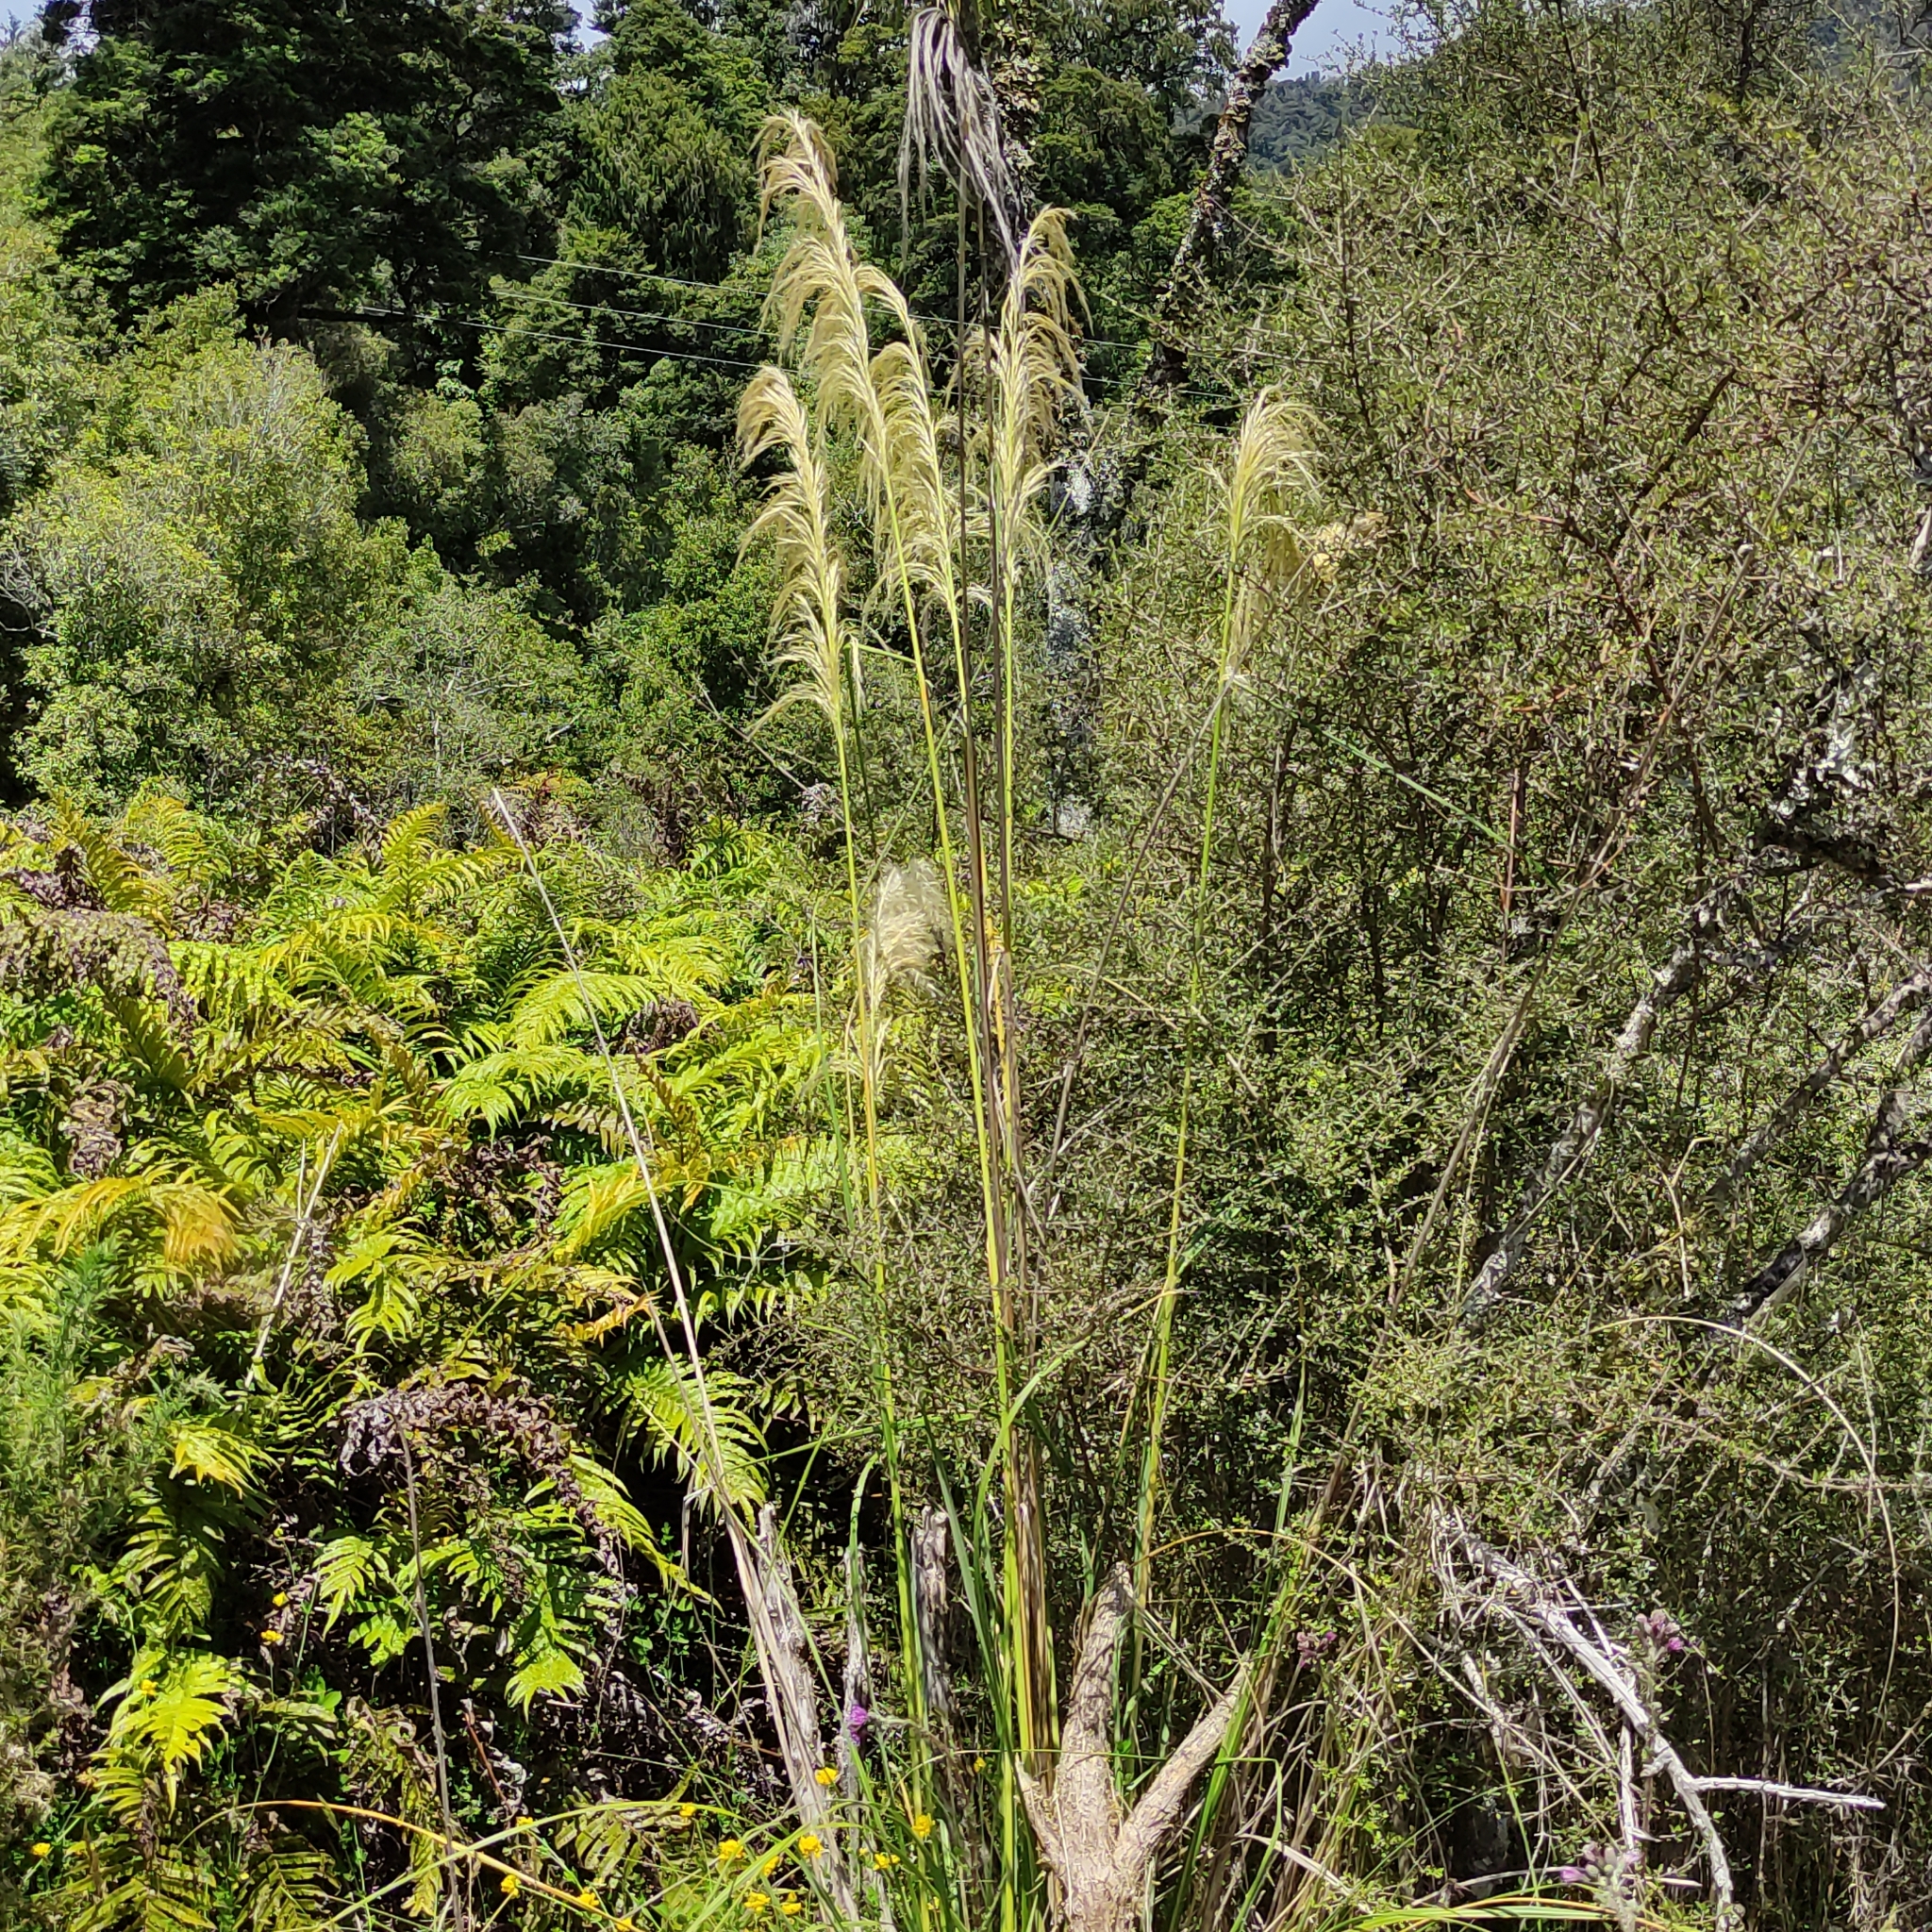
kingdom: Plantae
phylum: Tracheophyta
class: Liliopsida
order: Poales
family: Poaceae
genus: Austroderia
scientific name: Austroderia richardii
